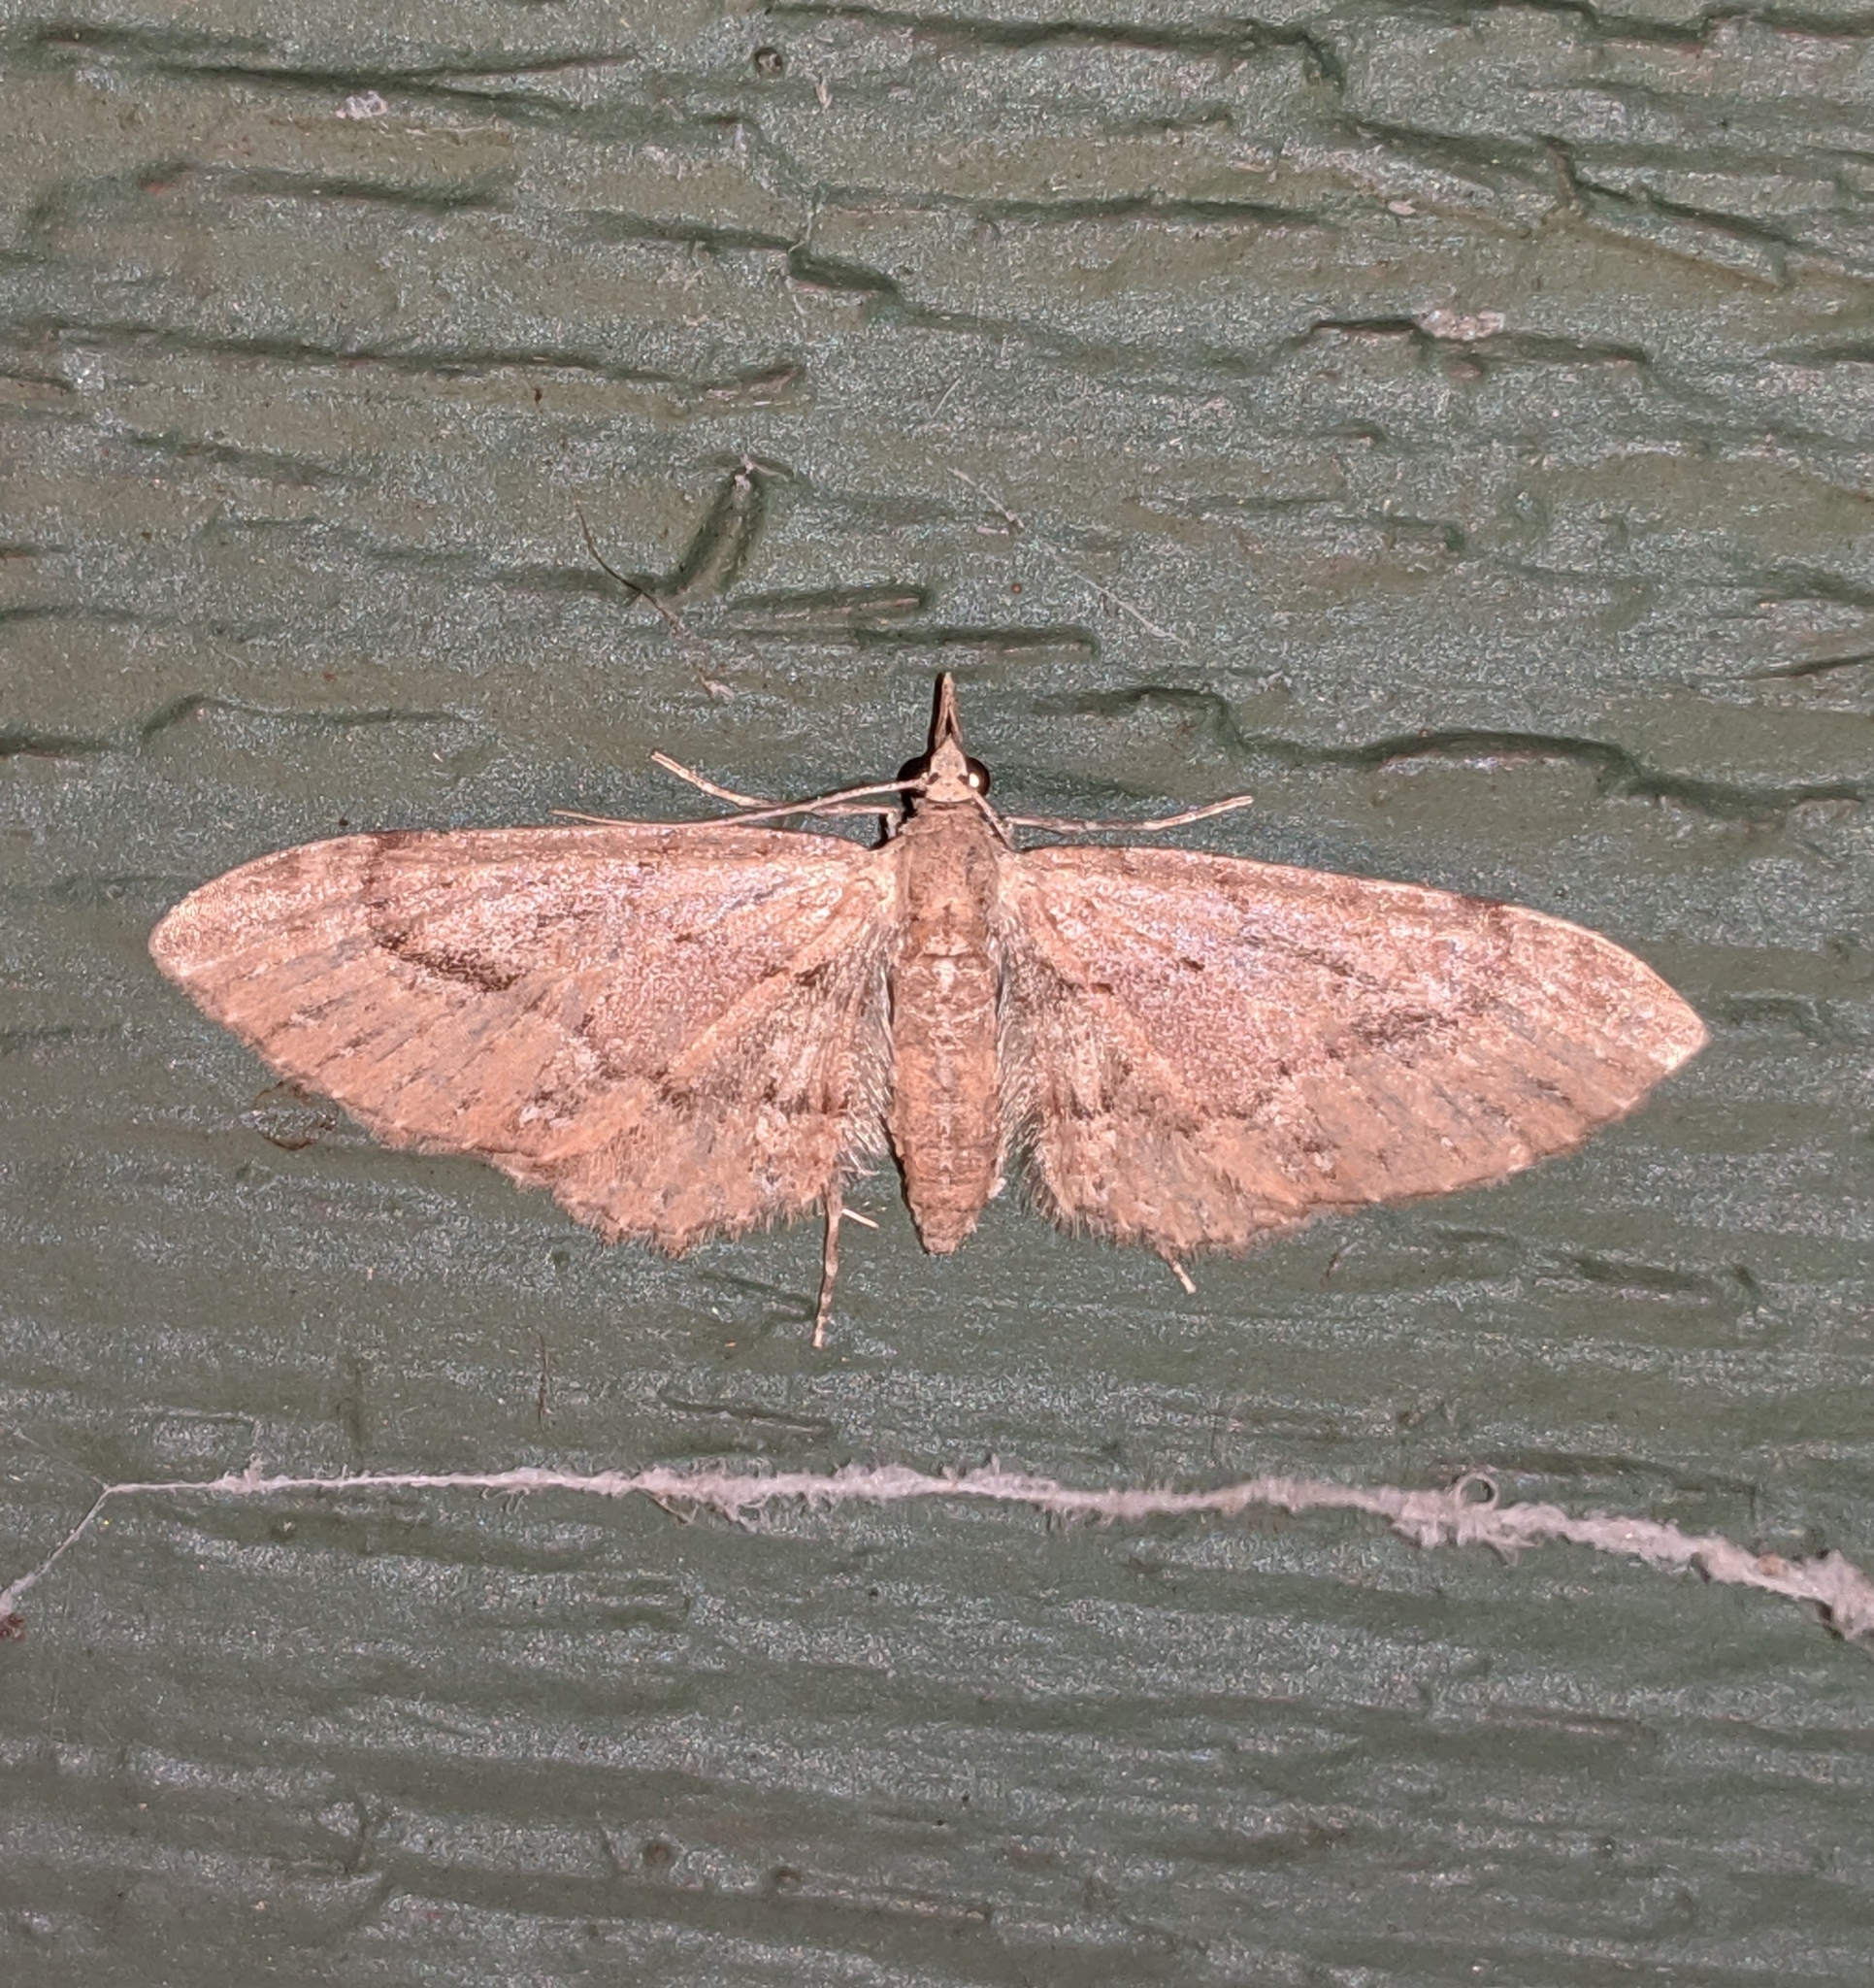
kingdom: Animalia
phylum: Arthropoda
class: Insecta
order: Lepidoptera
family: Geometridae
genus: Eupithecia
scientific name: Eupithecia unicolor
